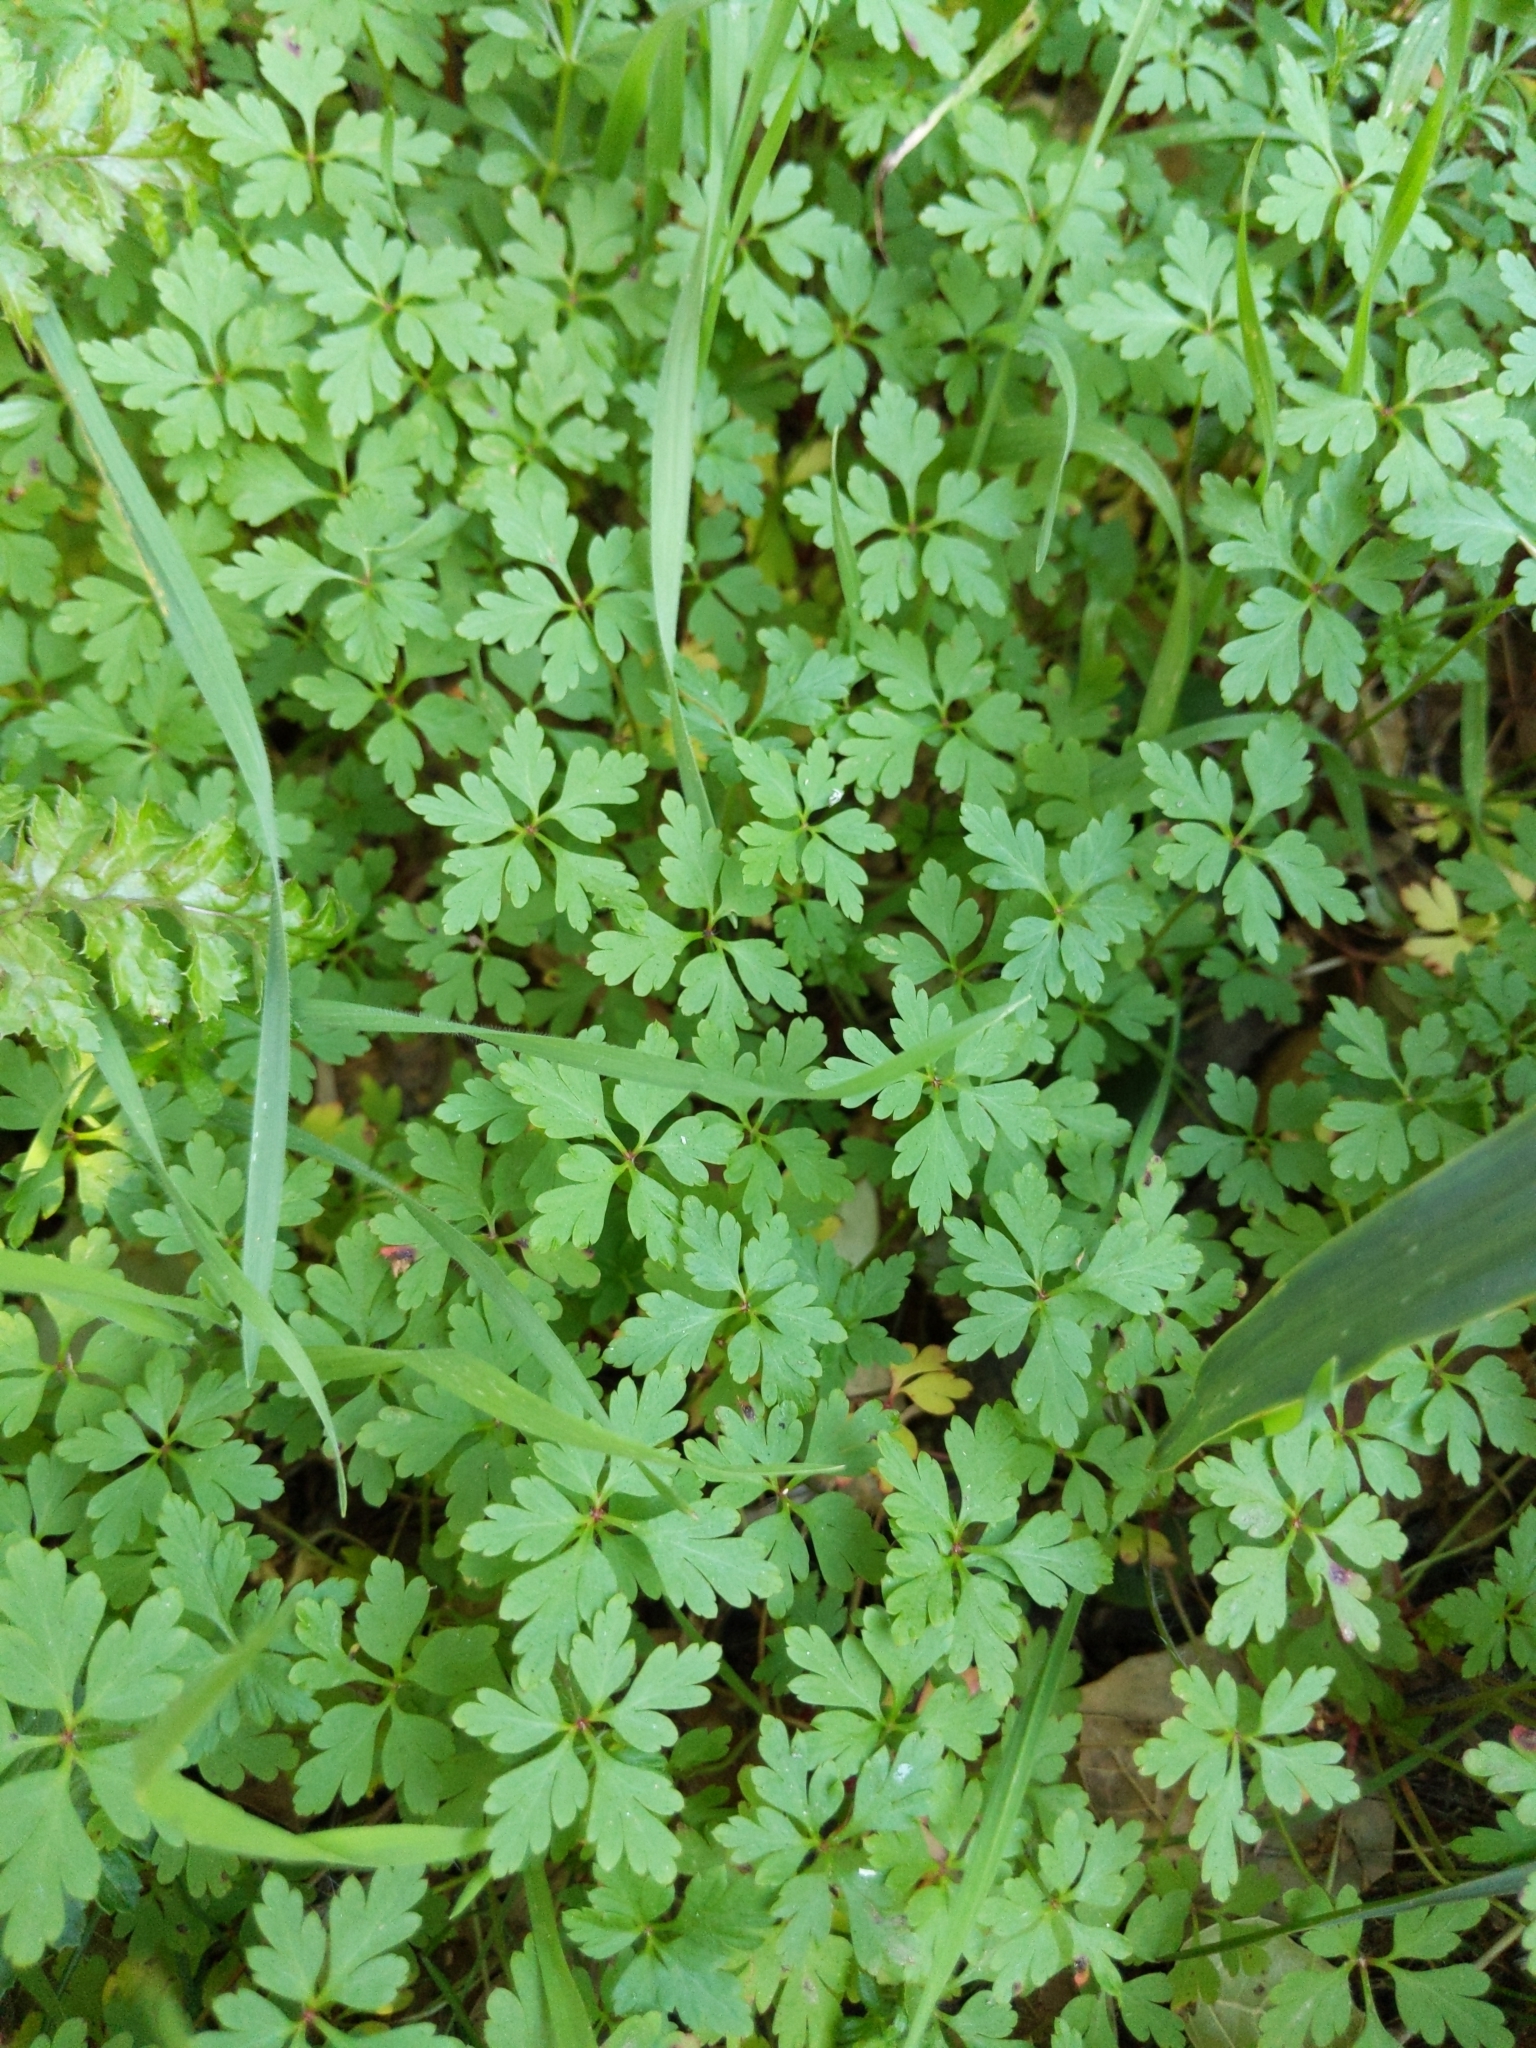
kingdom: Plantae
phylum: Tracheophyta
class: Magnoliopsida
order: Geraniales
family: Geraniaceae
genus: Geranium
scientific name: Geranium
